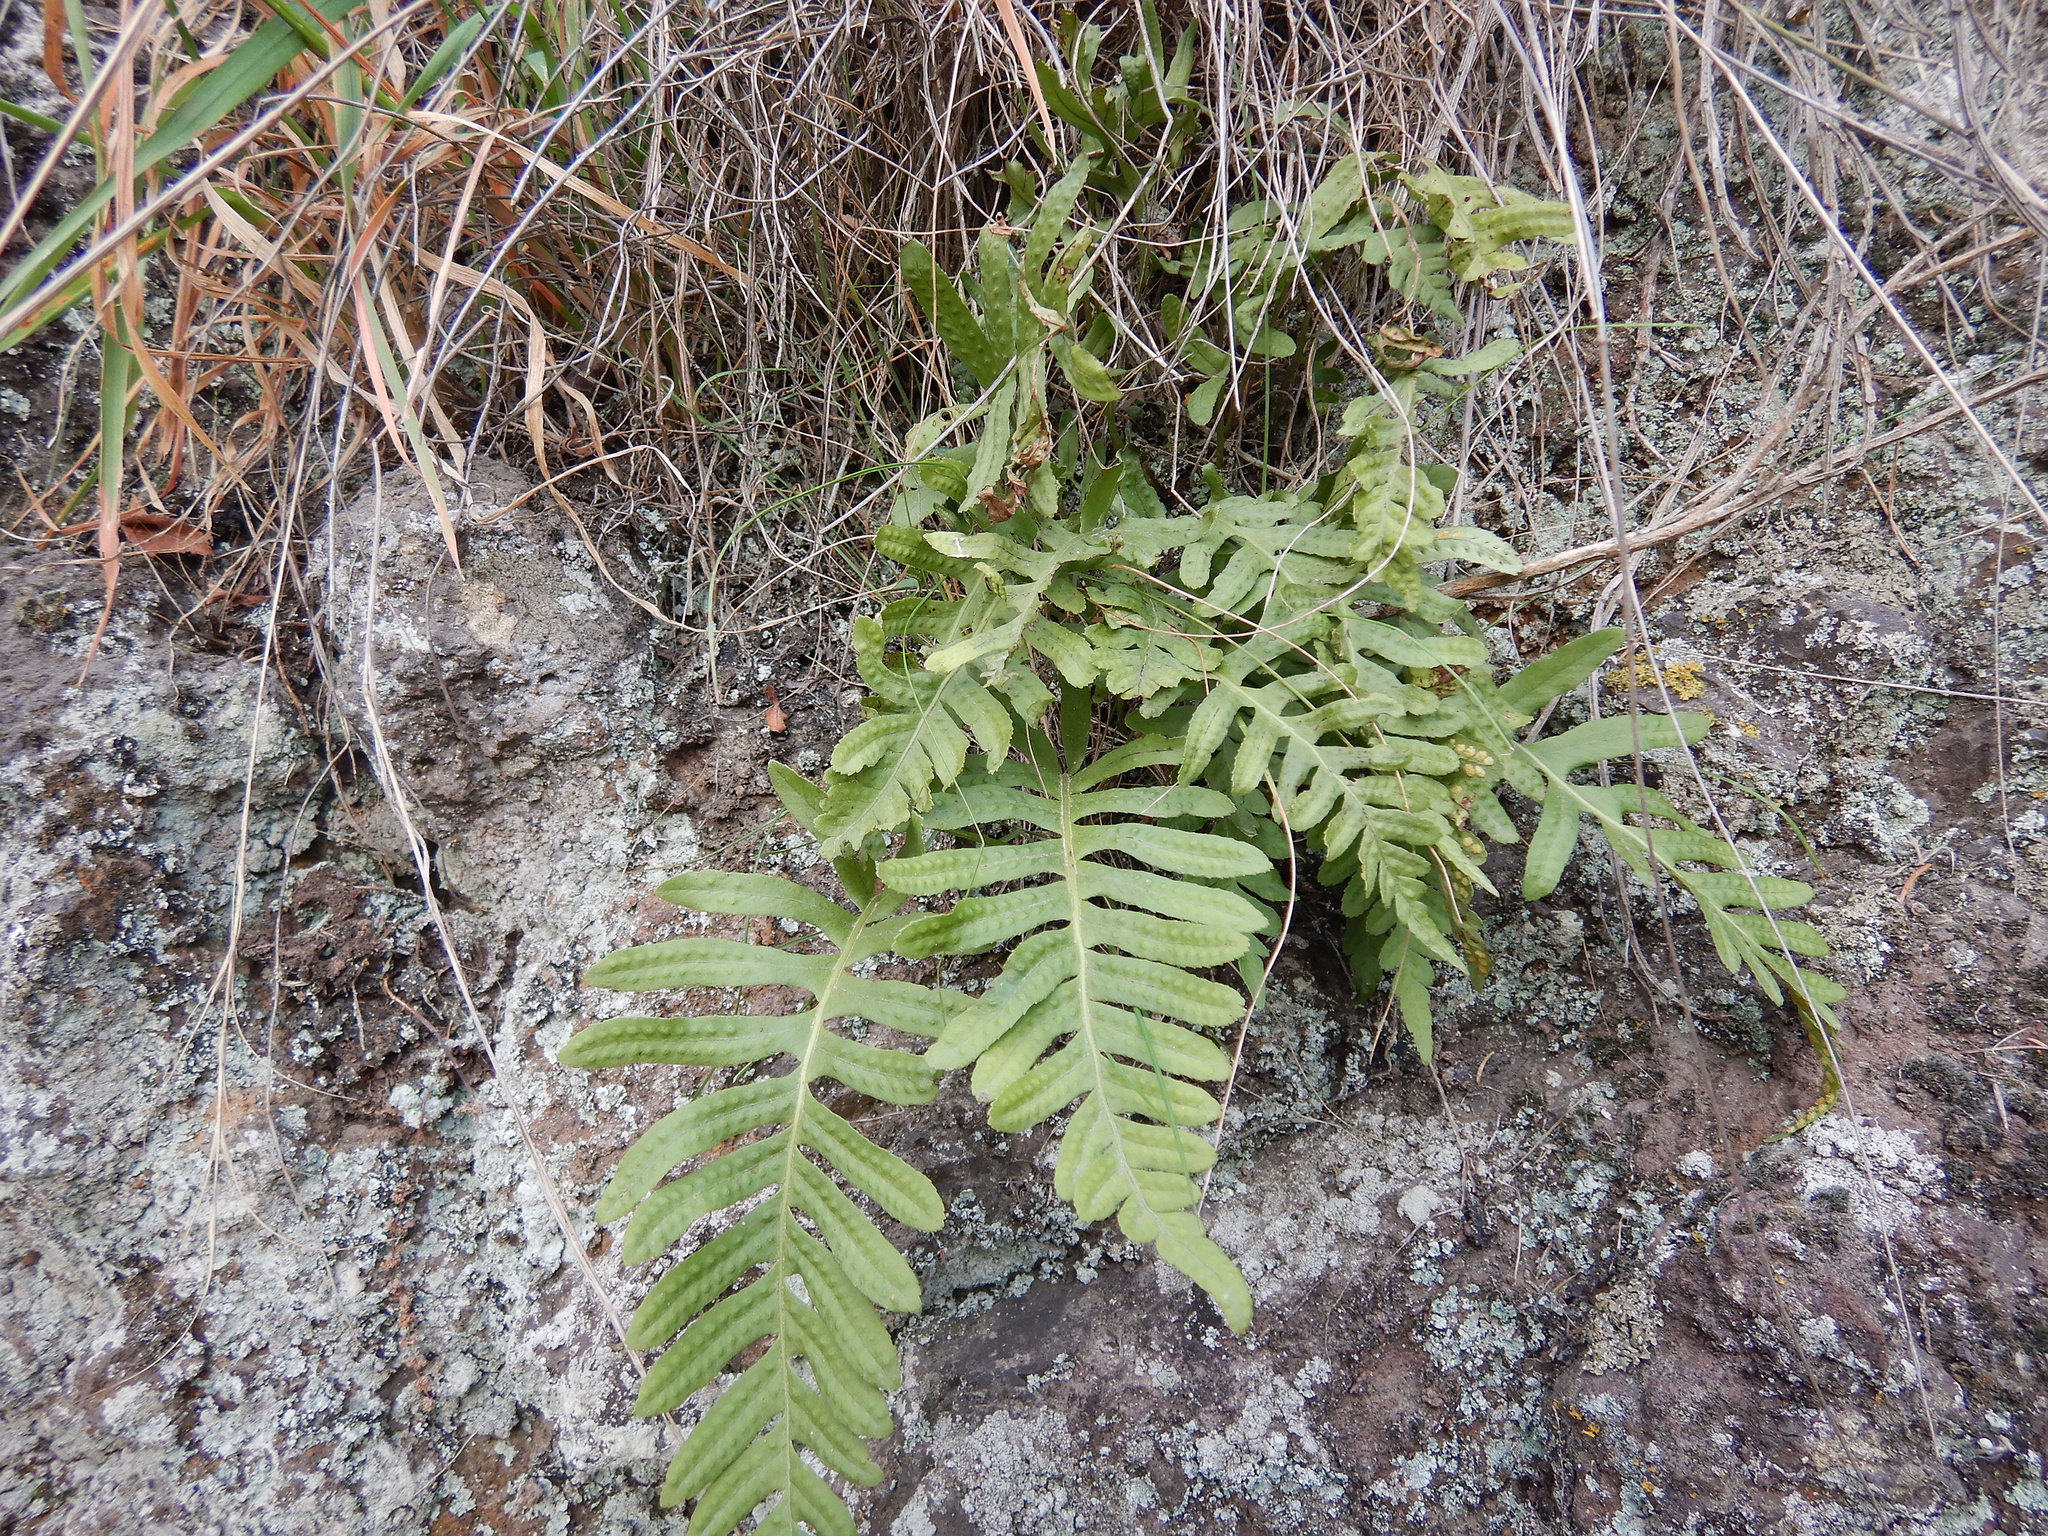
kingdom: Plantae
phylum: Tracheophyta
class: Polypodiopsida
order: Polypodiales
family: Polypodiaceae
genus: Polypodium
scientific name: Polypodium vulgare
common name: Common polypody
